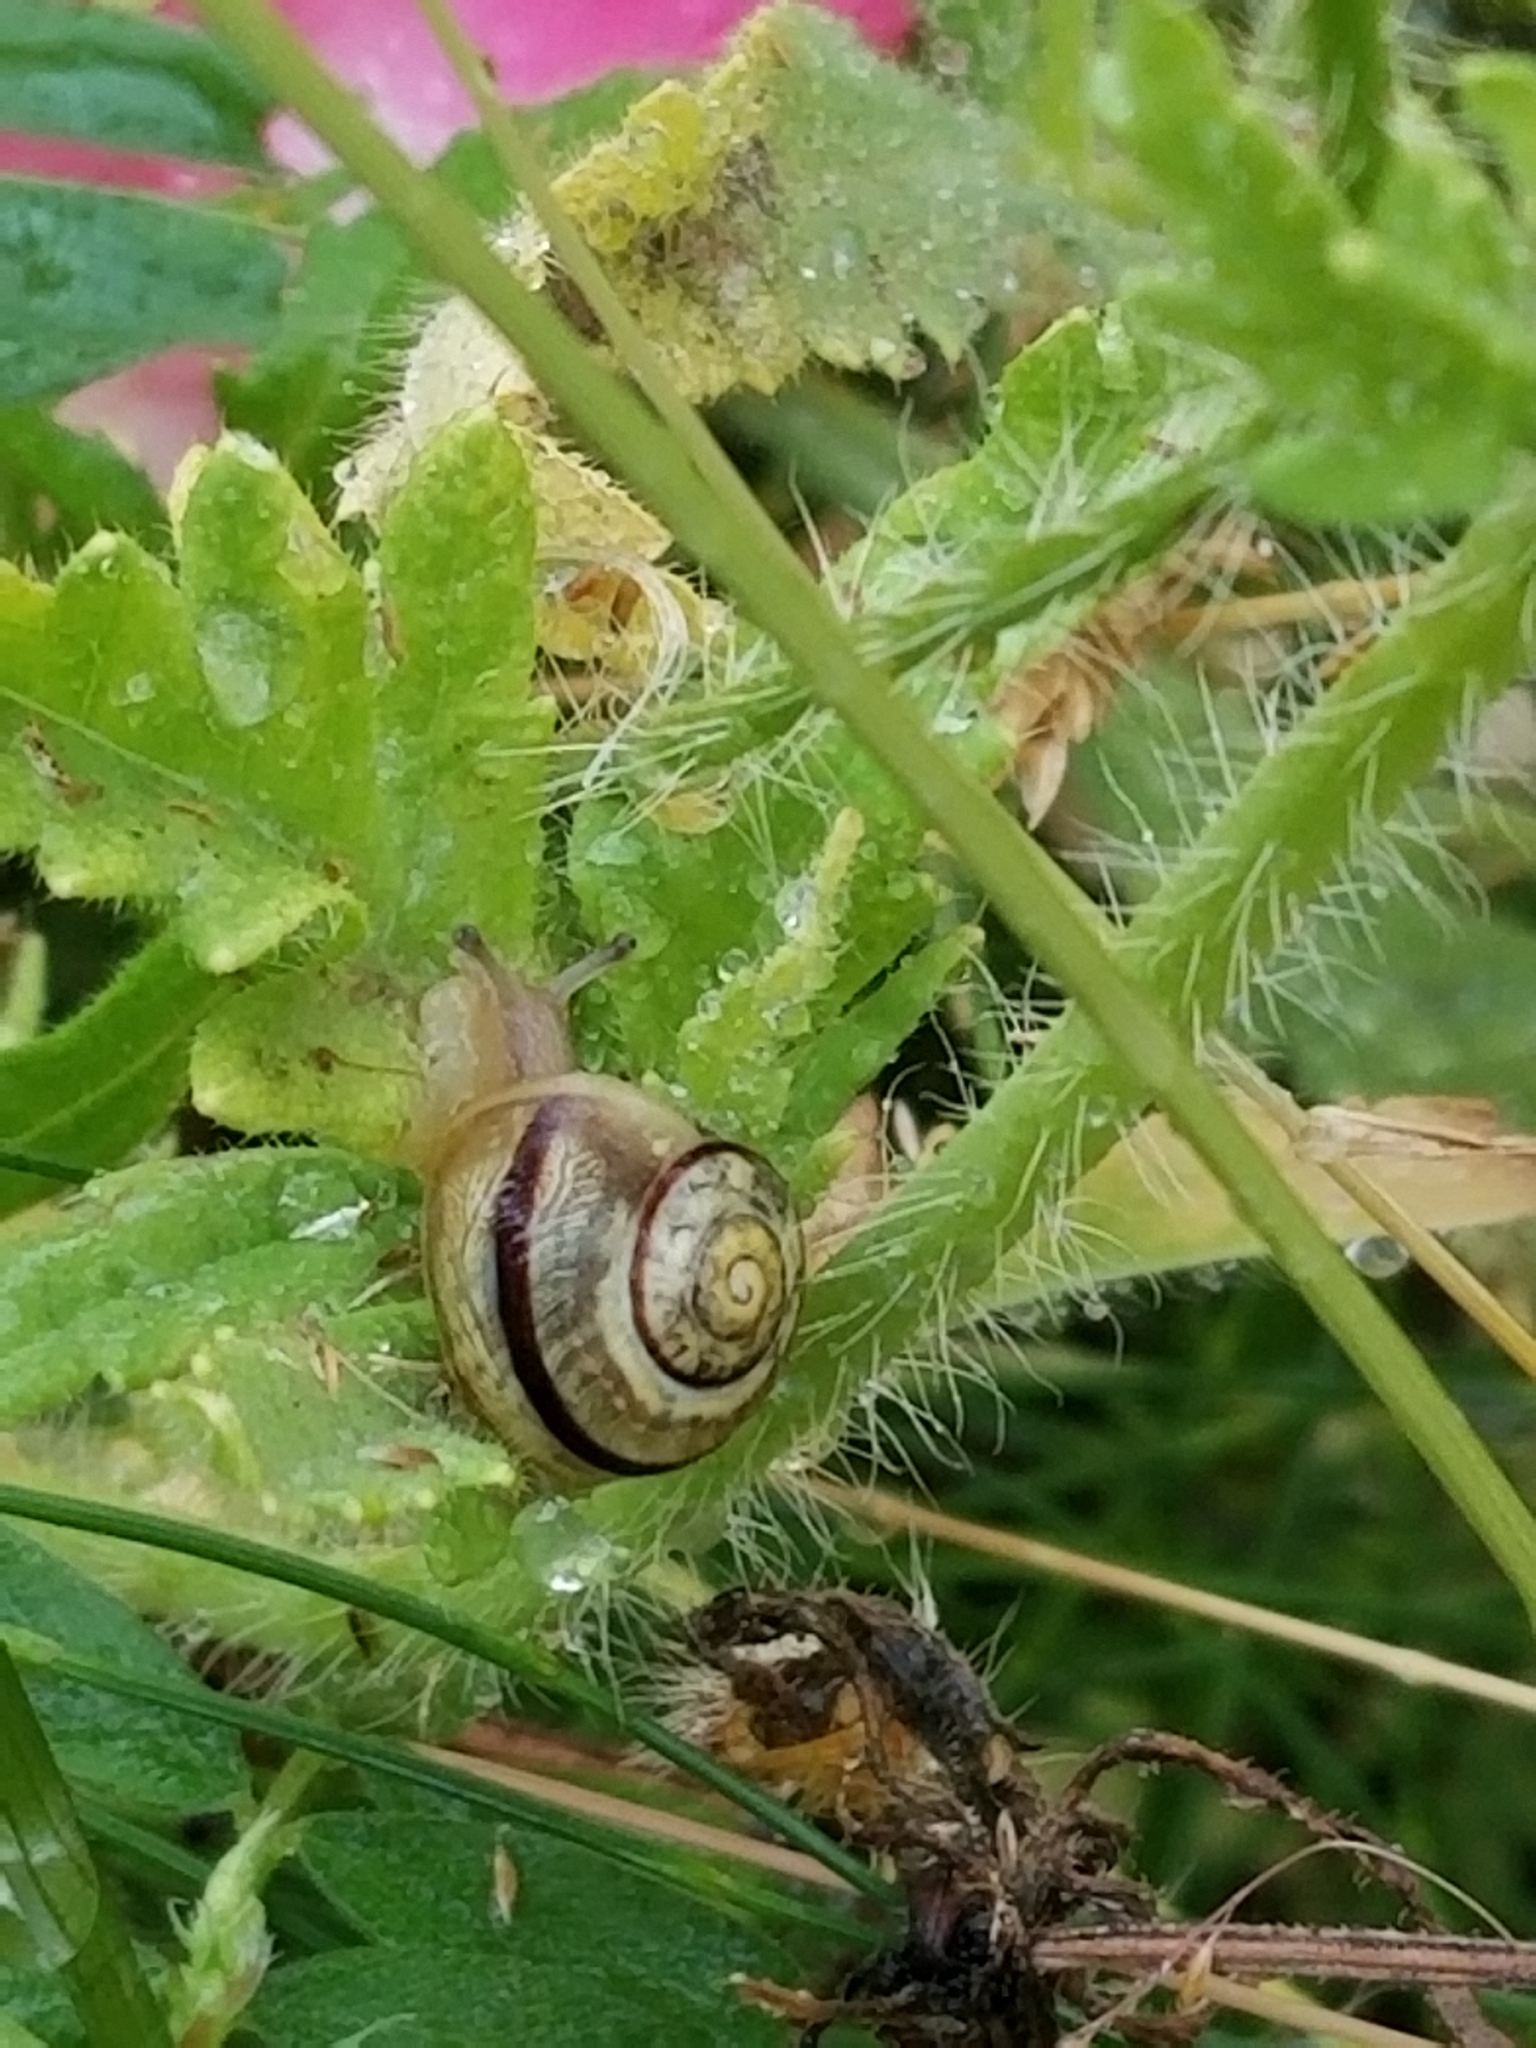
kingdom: Animalia
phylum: Mollusca
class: Gastropoda
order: Stylommatophora
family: Helicidae
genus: Cepaea
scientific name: Cepaea nemoralis
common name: Grovesnail
